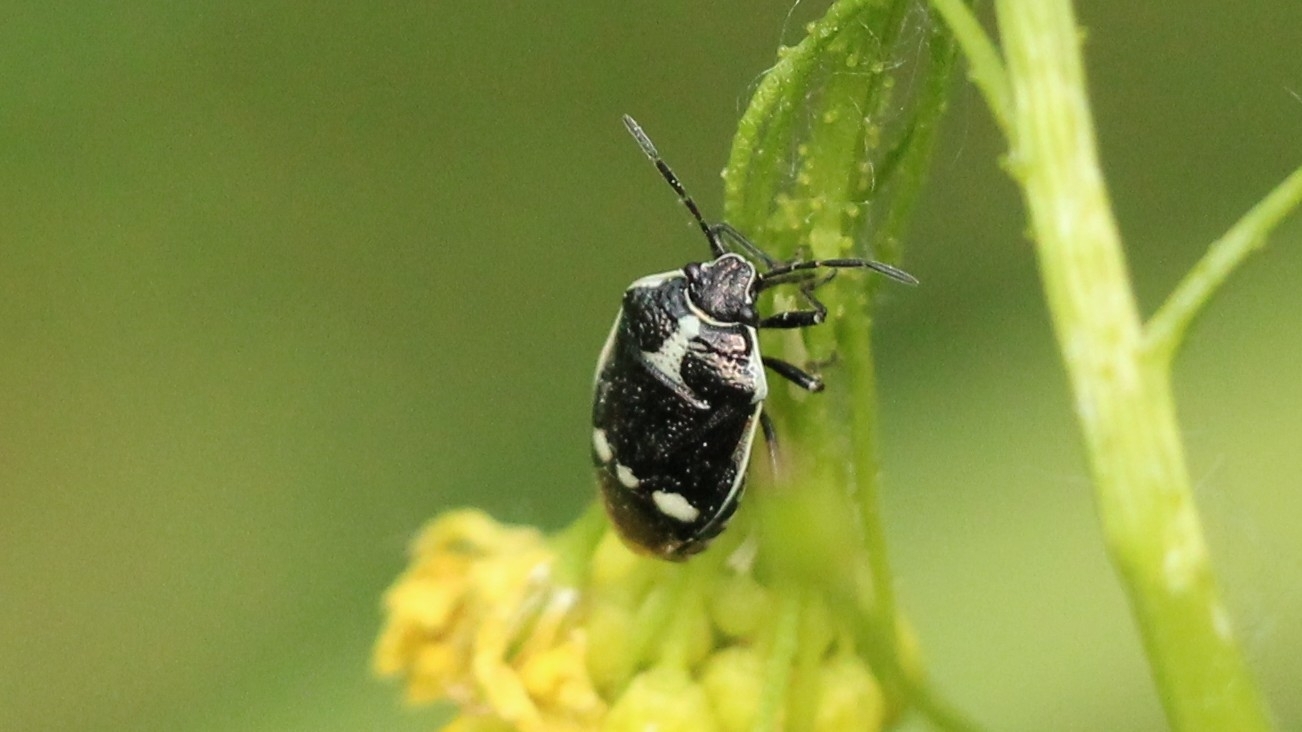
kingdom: Animalia
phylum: Arthropoda
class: Insecta
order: Hemiptera
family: Pentatomidae
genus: Eurydema
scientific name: Eurydema oleracea
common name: Cabbage bug
